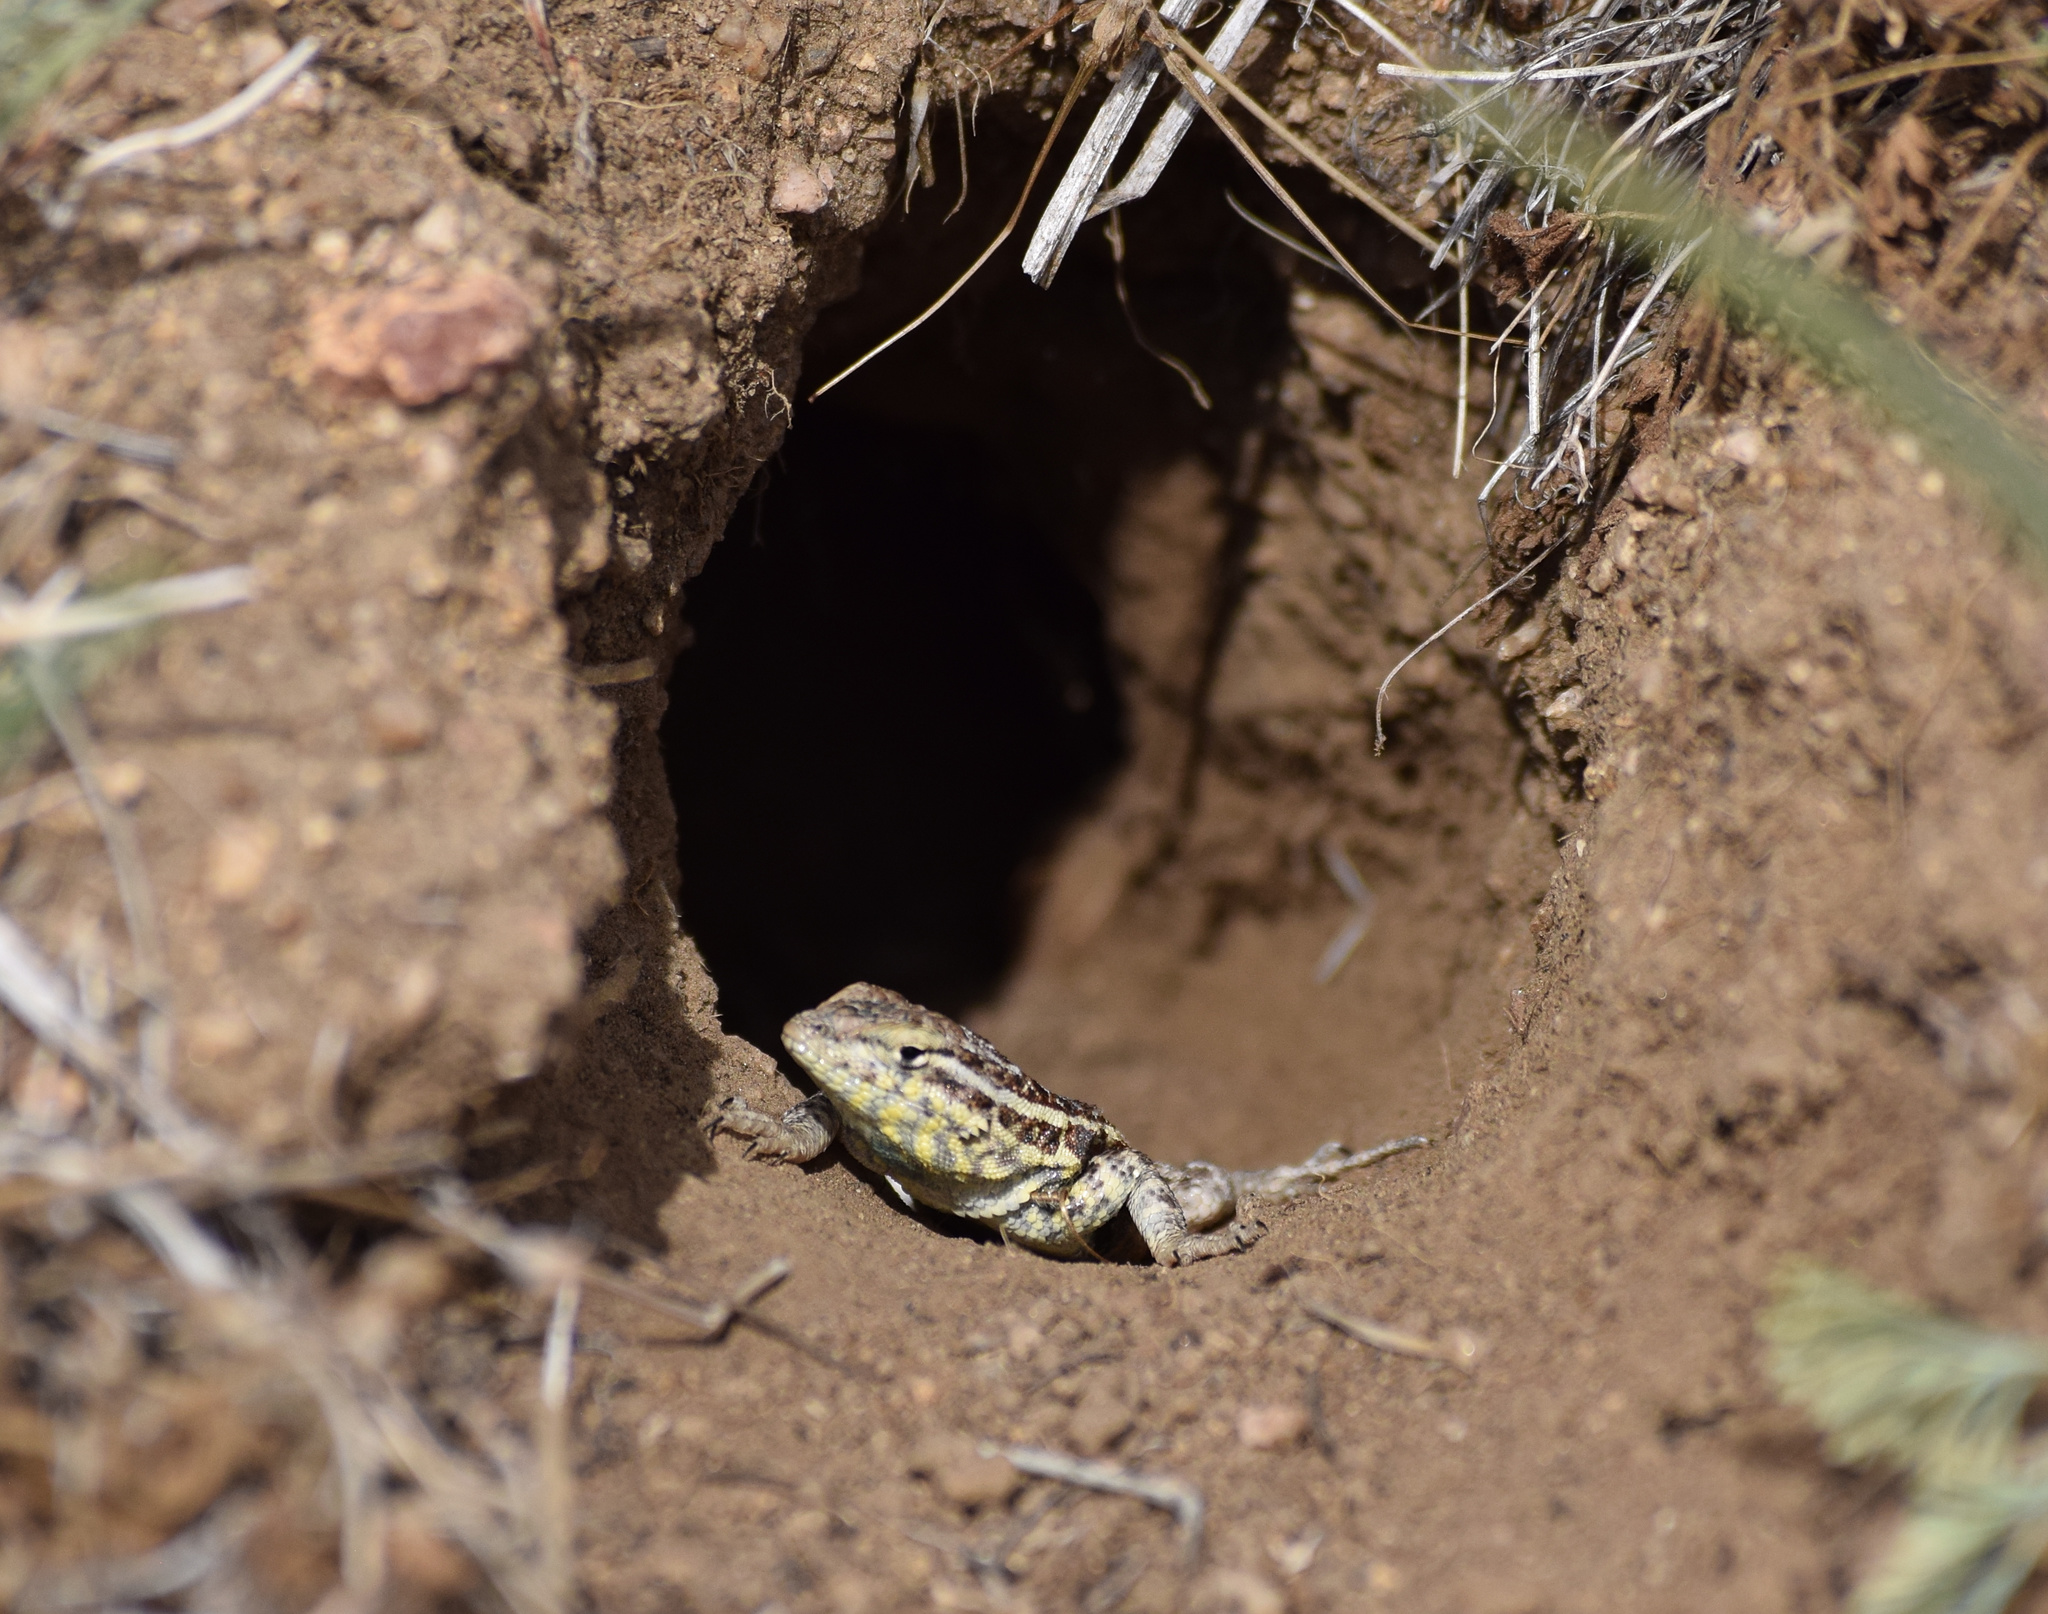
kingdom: Animalia
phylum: Chordata
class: Squamata
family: Phrynosomatidae
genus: Uta
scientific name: Uta stansburiana
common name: Side-blotched lizard
